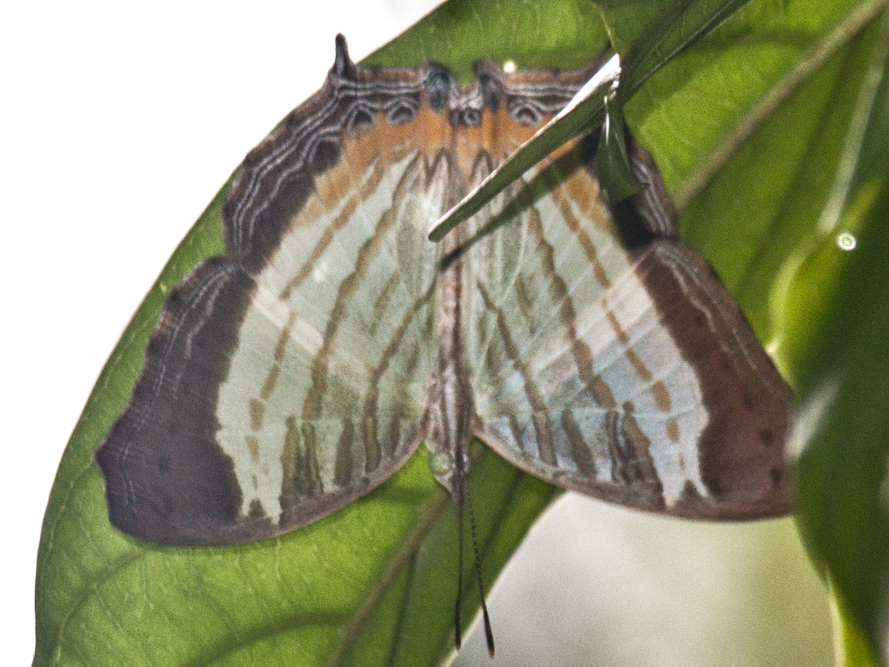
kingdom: Animalia
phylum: Arthropoda
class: Insecta
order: Lepidoptera
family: Nymphalidae
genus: Cyrestis
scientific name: Cyrestis themire
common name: Little mapwing
